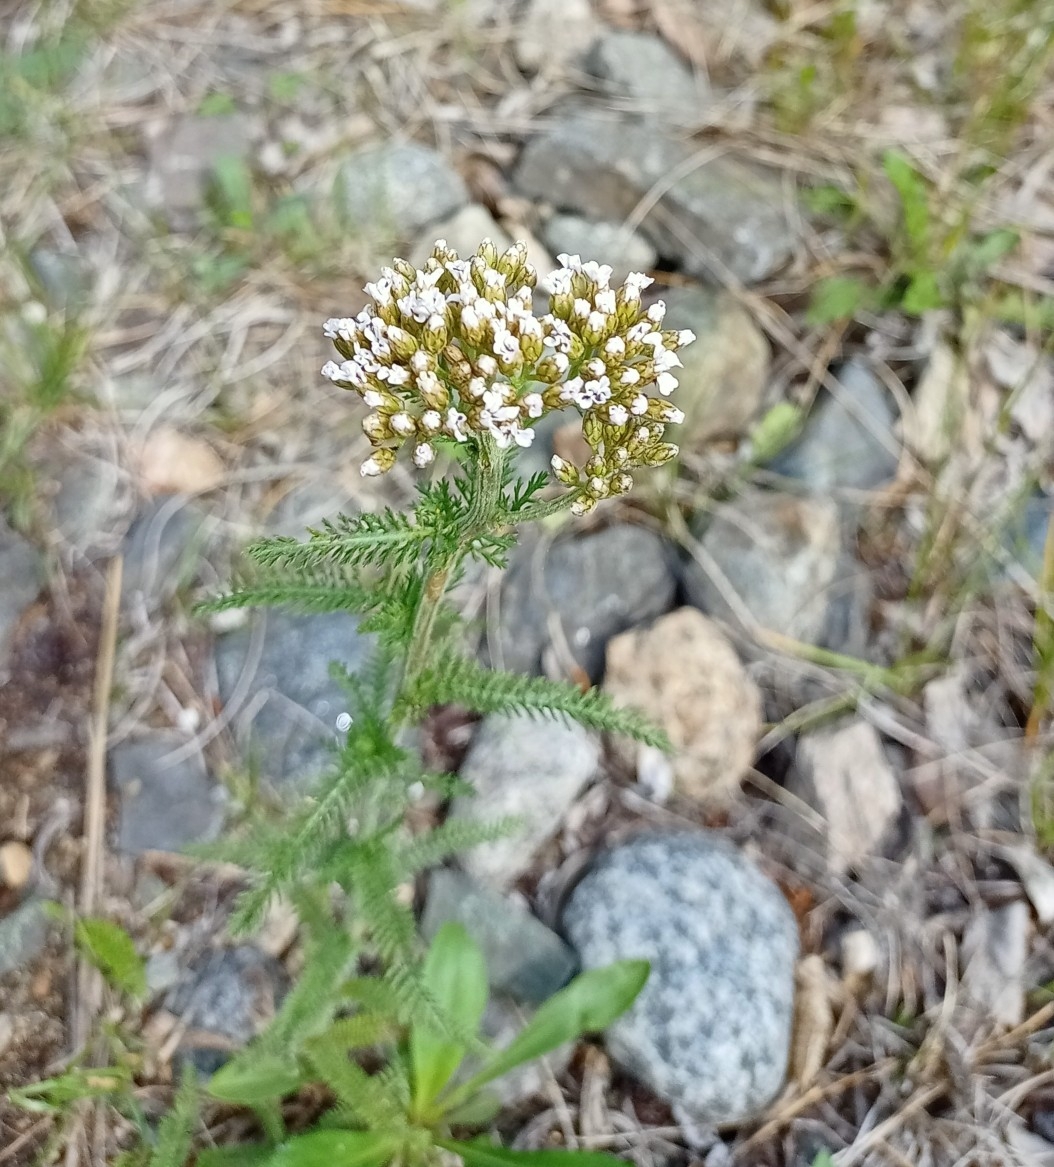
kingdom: Plantae
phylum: Tracheophyta
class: Magnoliopsida
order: Asterales
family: Asteraceae
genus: Achillea
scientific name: Achillea millefolium
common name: Yarrow
